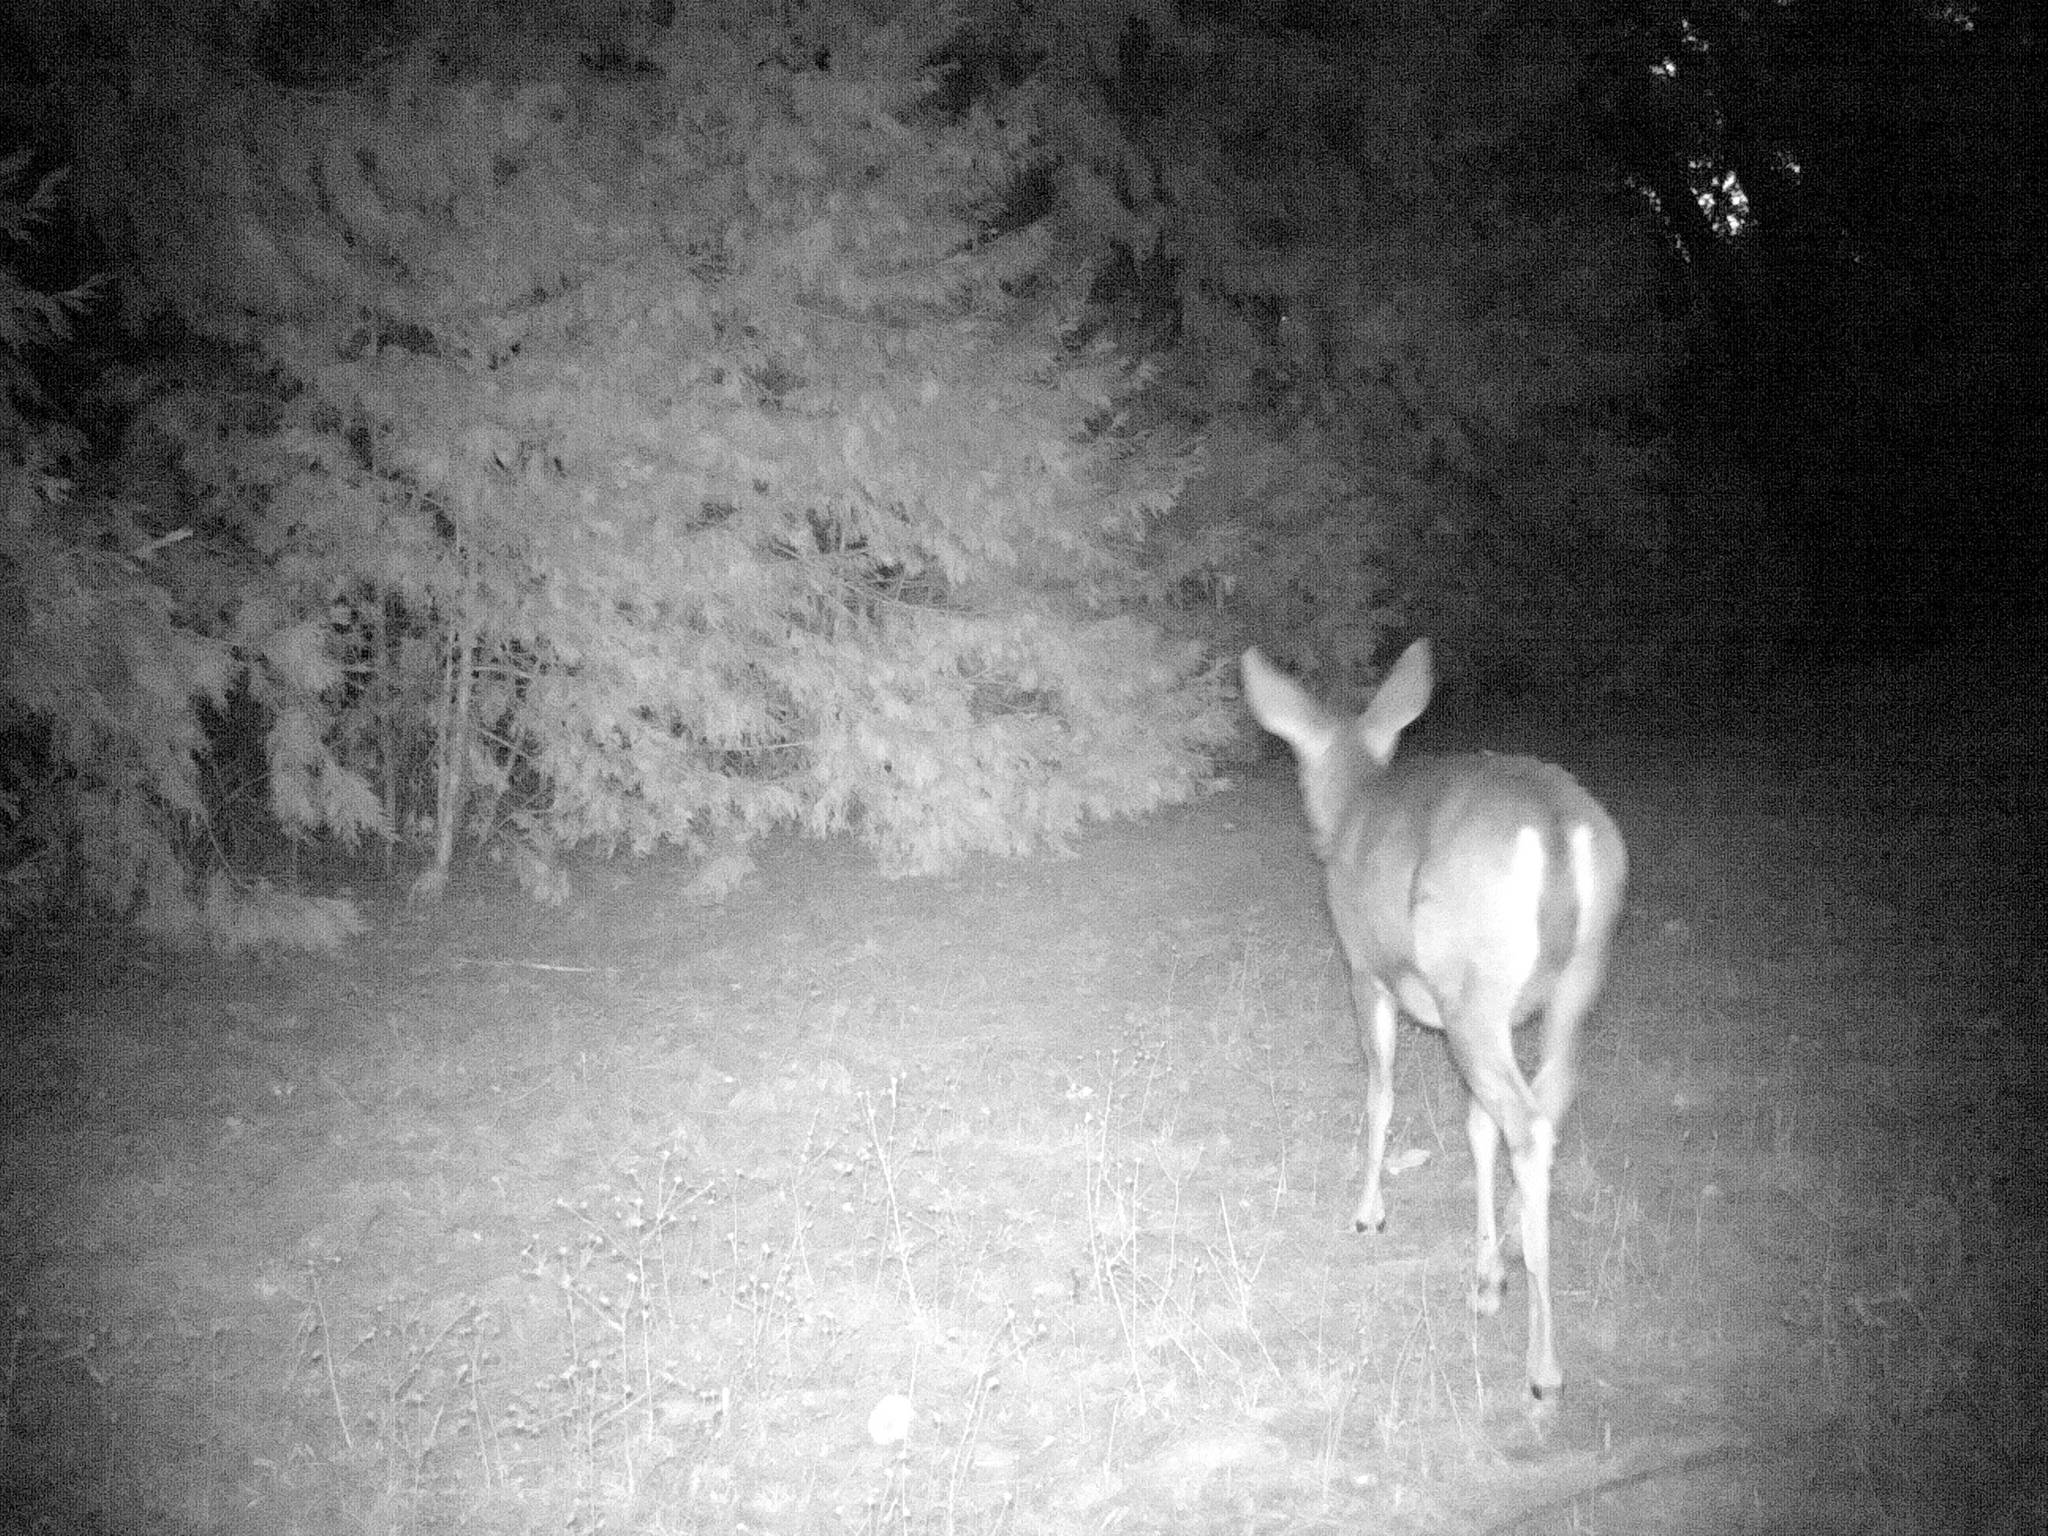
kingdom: Animalia
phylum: Chordata
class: Mammalia
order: Artiodactyla
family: Cervidae
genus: Odocoileus
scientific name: Odocoileus hemionus
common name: Mule deer
